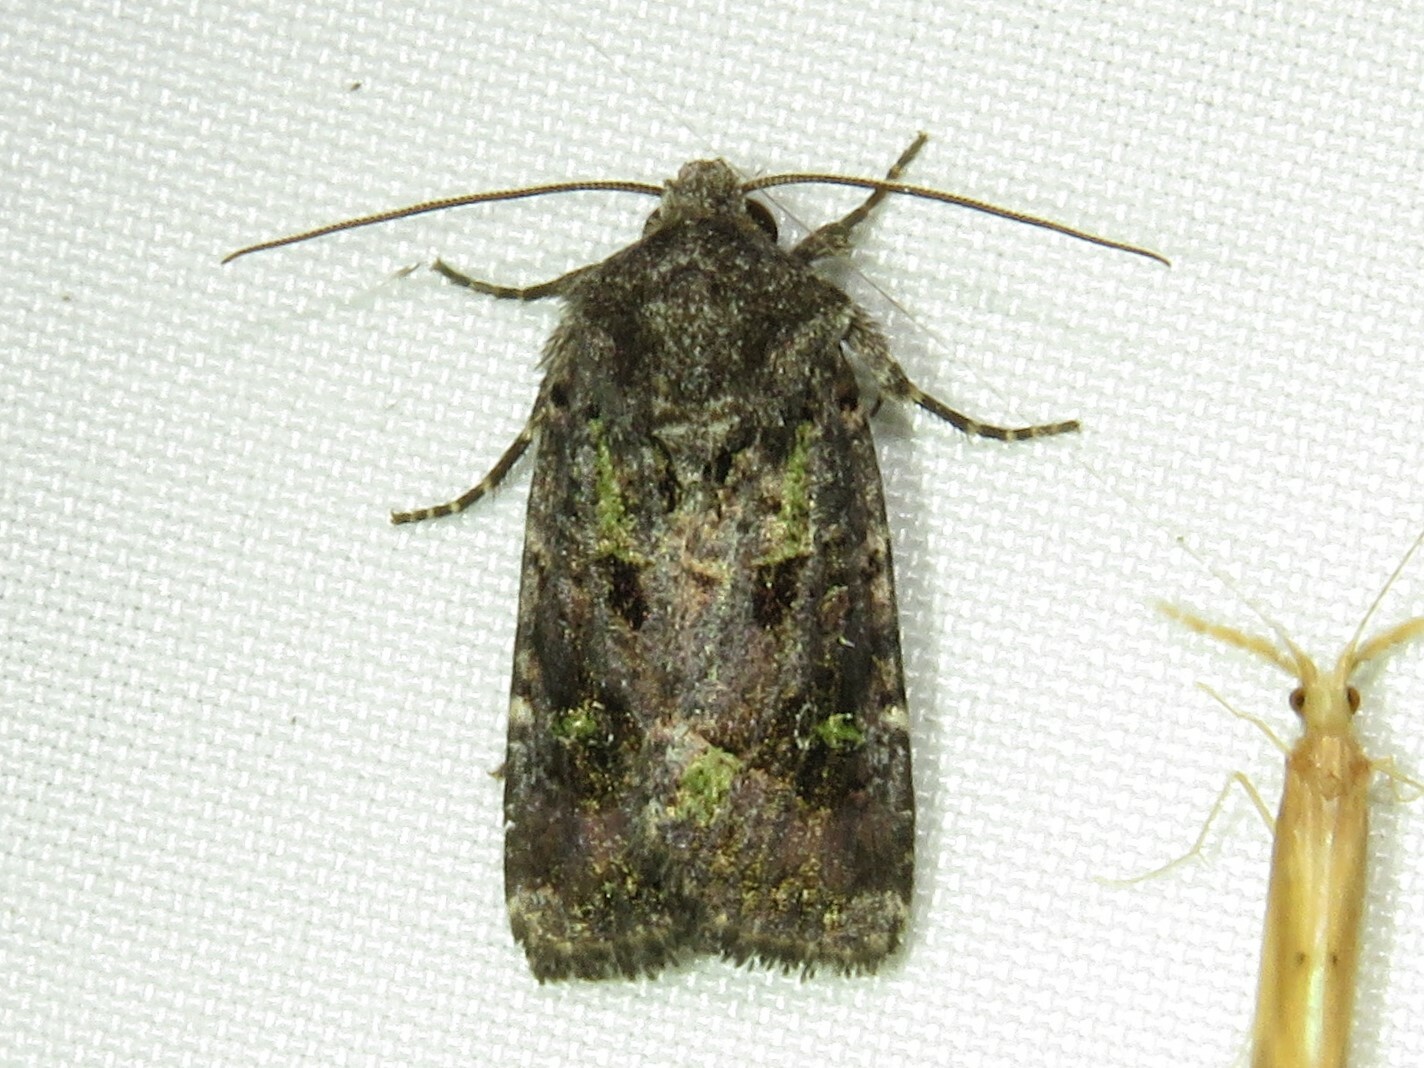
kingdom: Animalia
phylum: Arthropoda
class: Insecta
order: Lepidoptera
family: Noctuidae
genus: Lacinipolia
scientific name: Lacinipolia renigera
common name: Kidney-spotted minor
